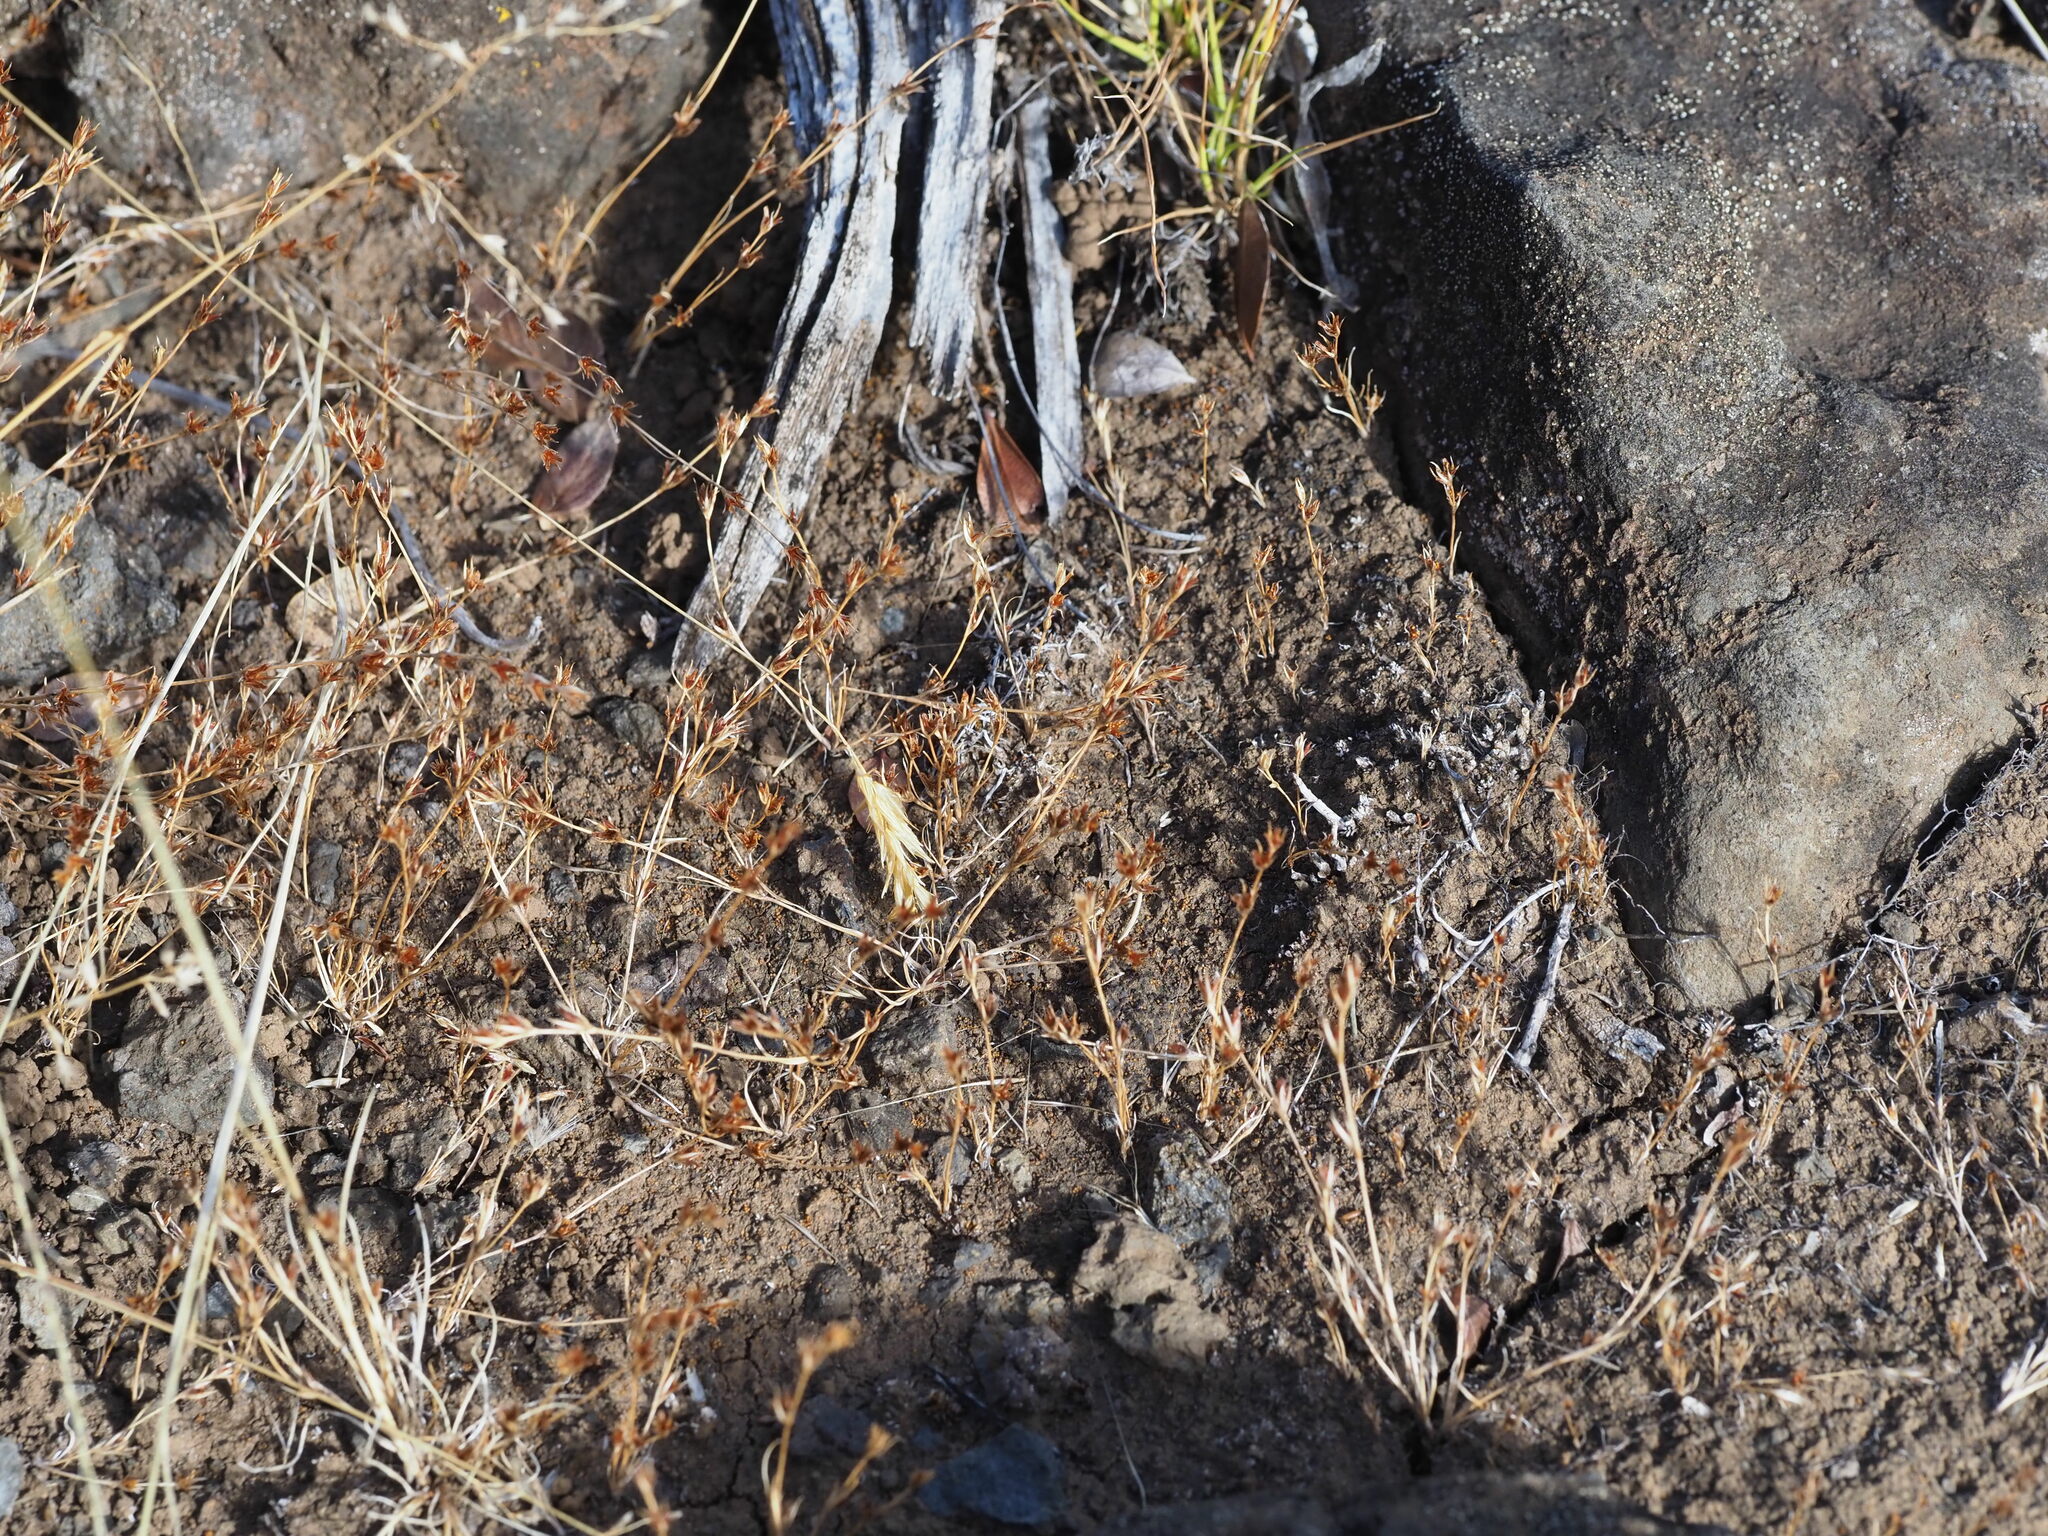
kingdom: Plantae
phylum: Tracheophyta
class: Liliopsida
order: Poales
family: Juncaceae
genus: Juncus
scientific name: Juncus bufonius
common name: Toad rush
